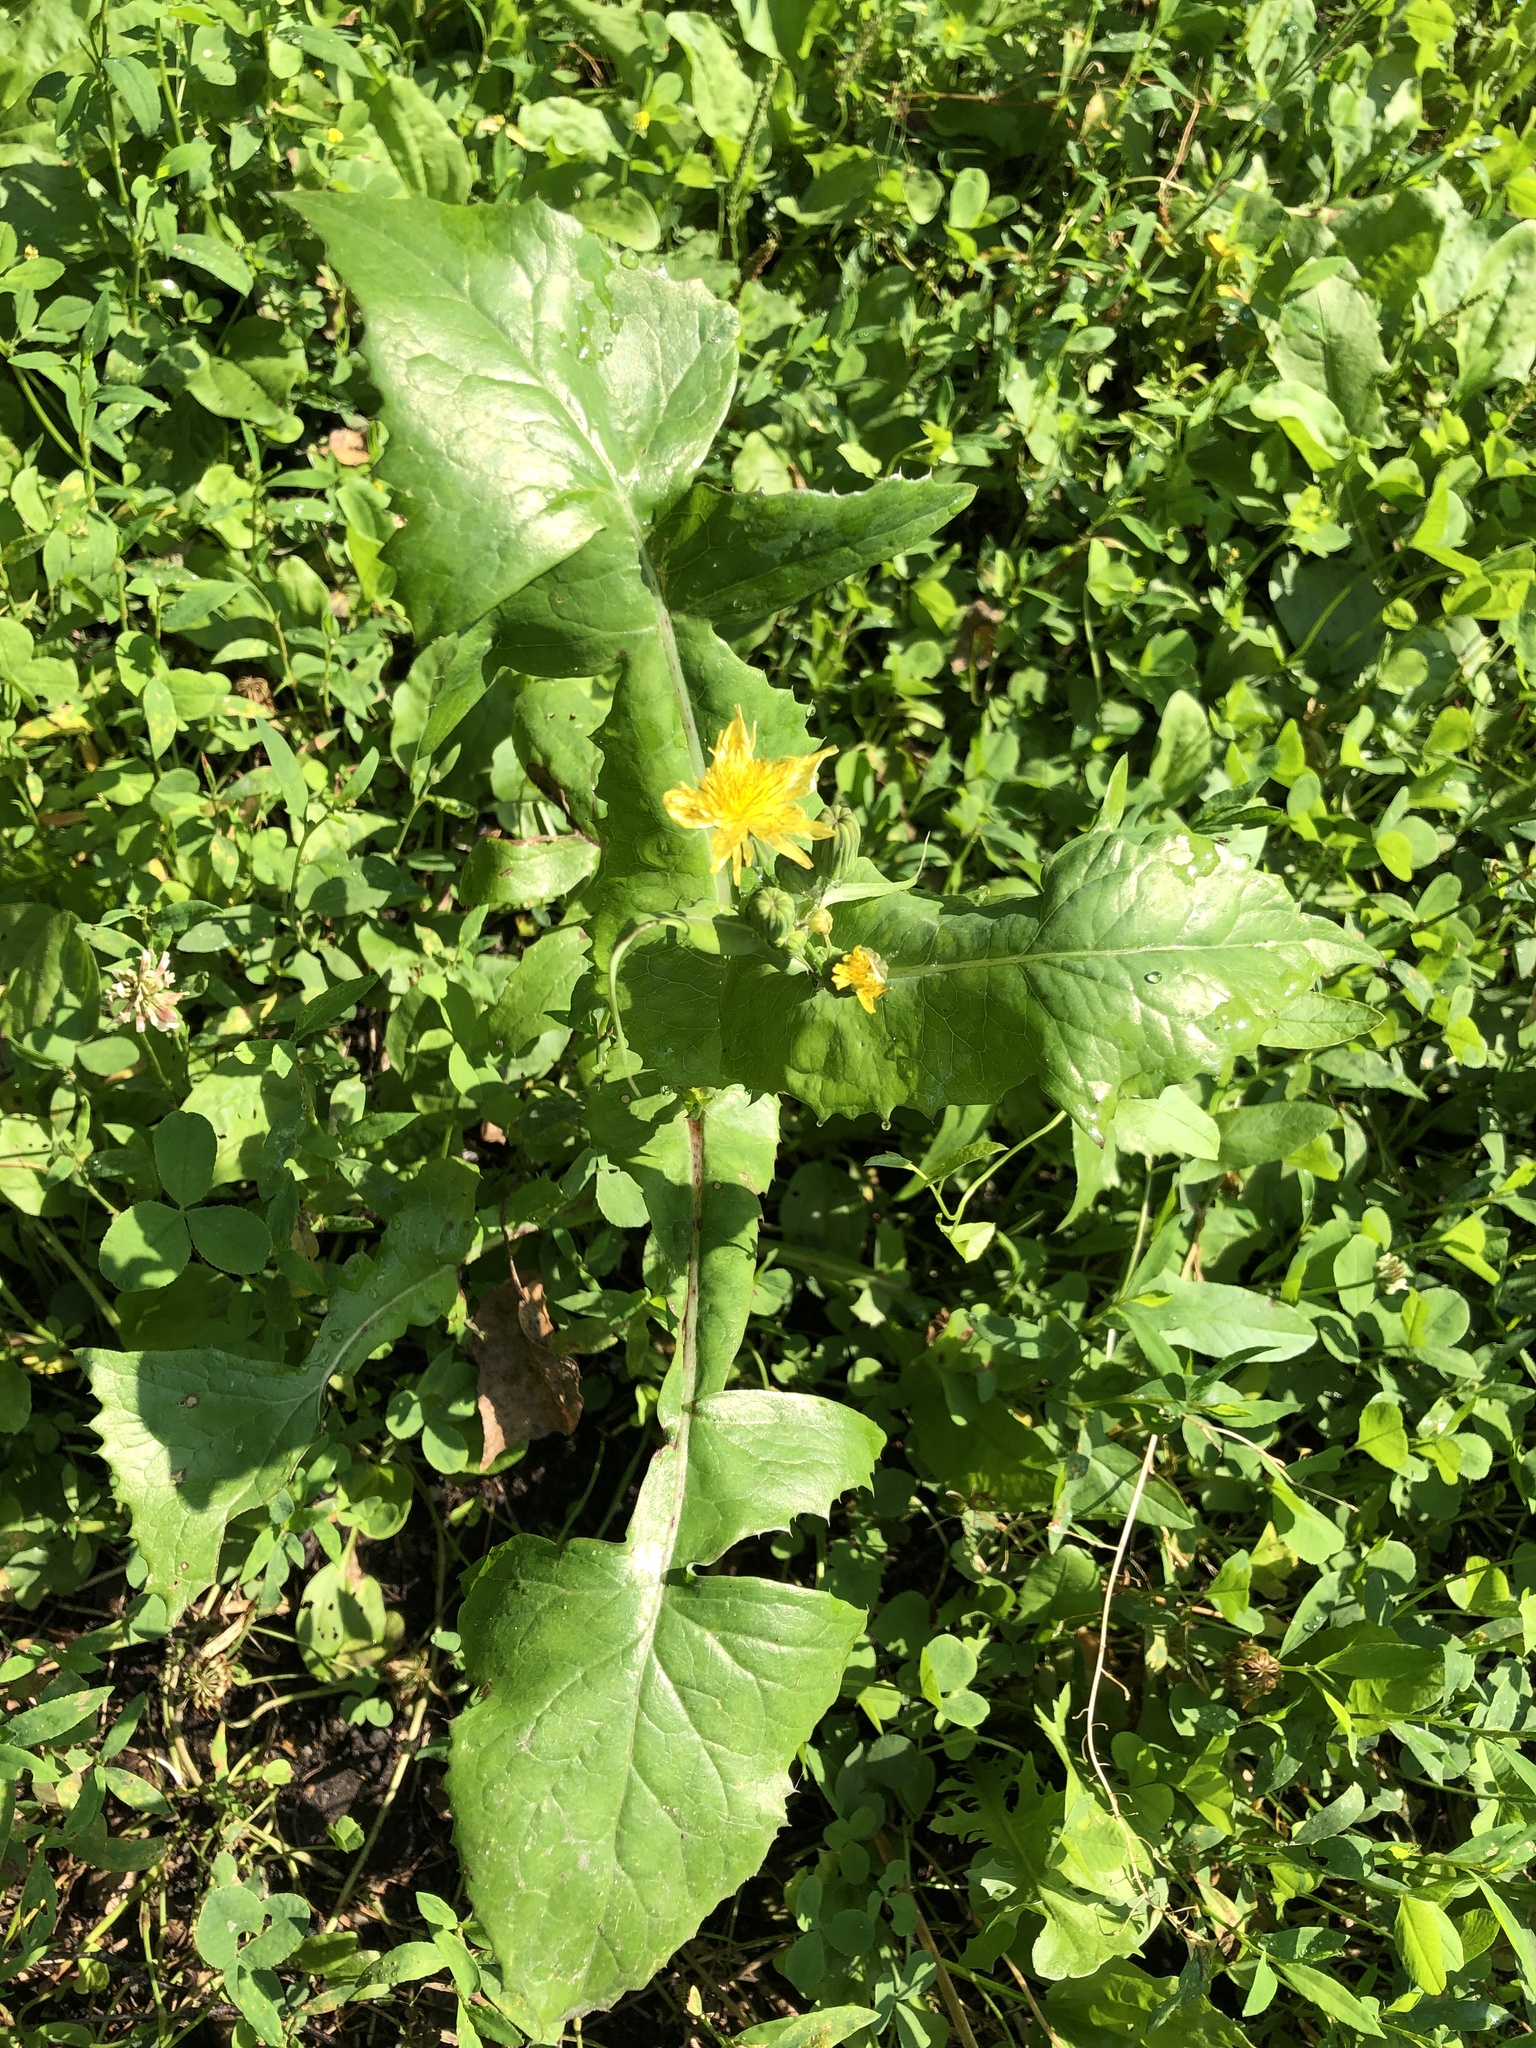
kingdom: Plantae
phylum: Tracheophyta
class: Magnoliopsida
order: Asterales
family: Asteraceae
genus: Sonchus
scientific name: Sonchus oleraceus
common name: Common sowthistle
